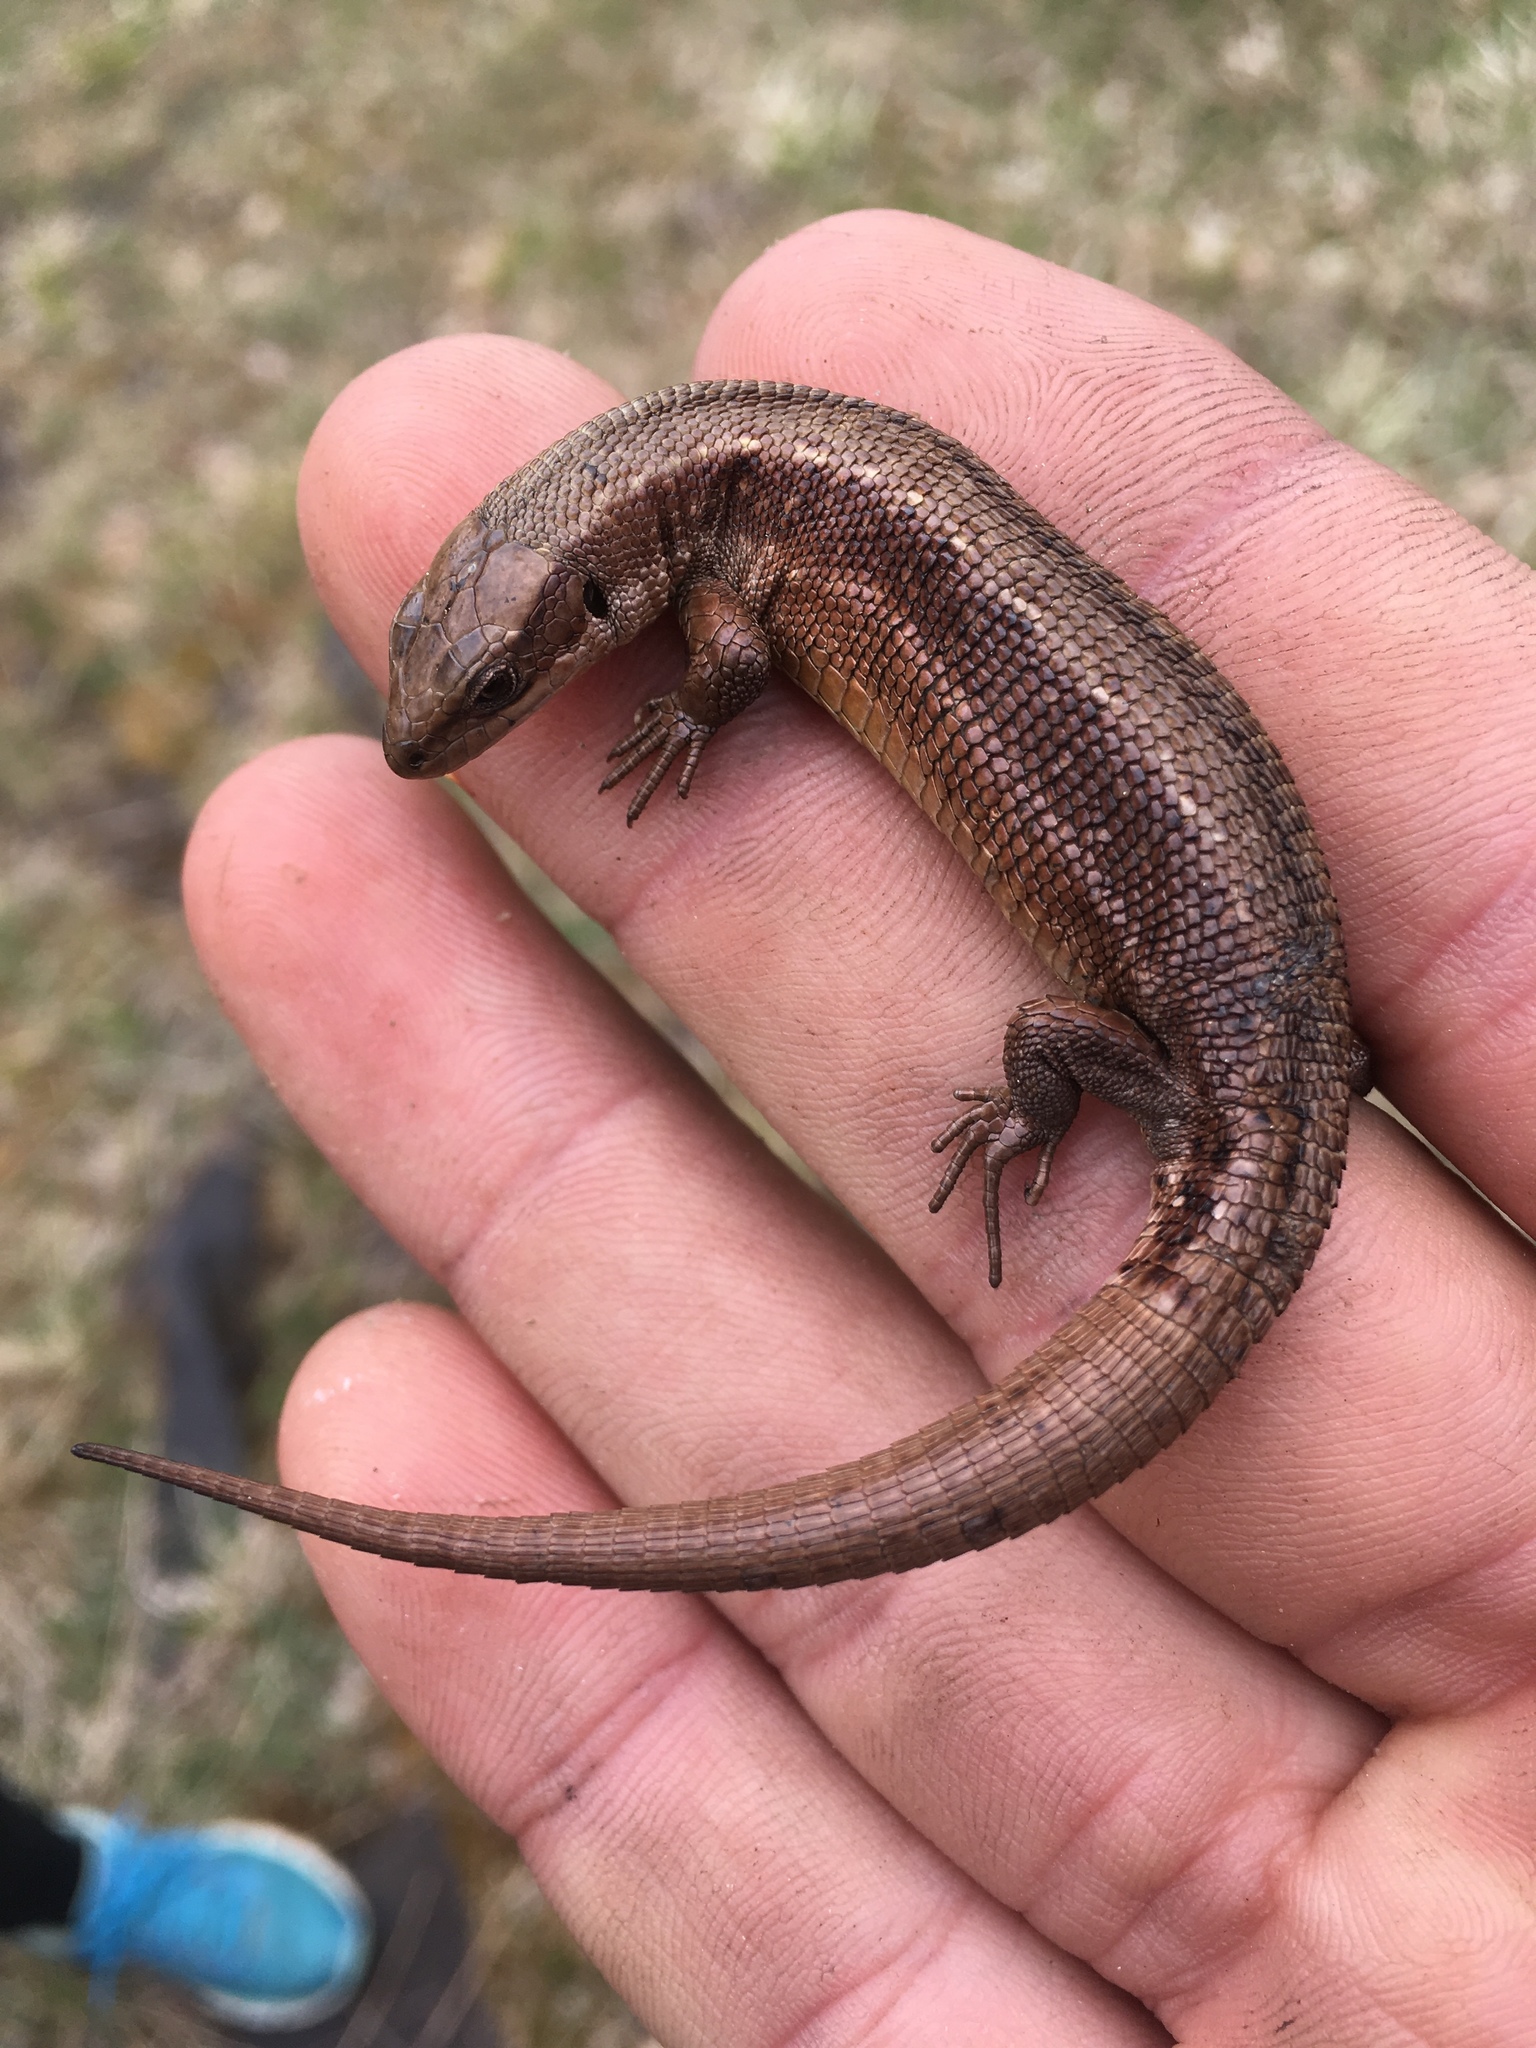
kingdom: Animalia
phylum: Chordata
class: Squamata
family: Lacertidae
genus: Zootoca
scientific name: Zootoca vivipara
